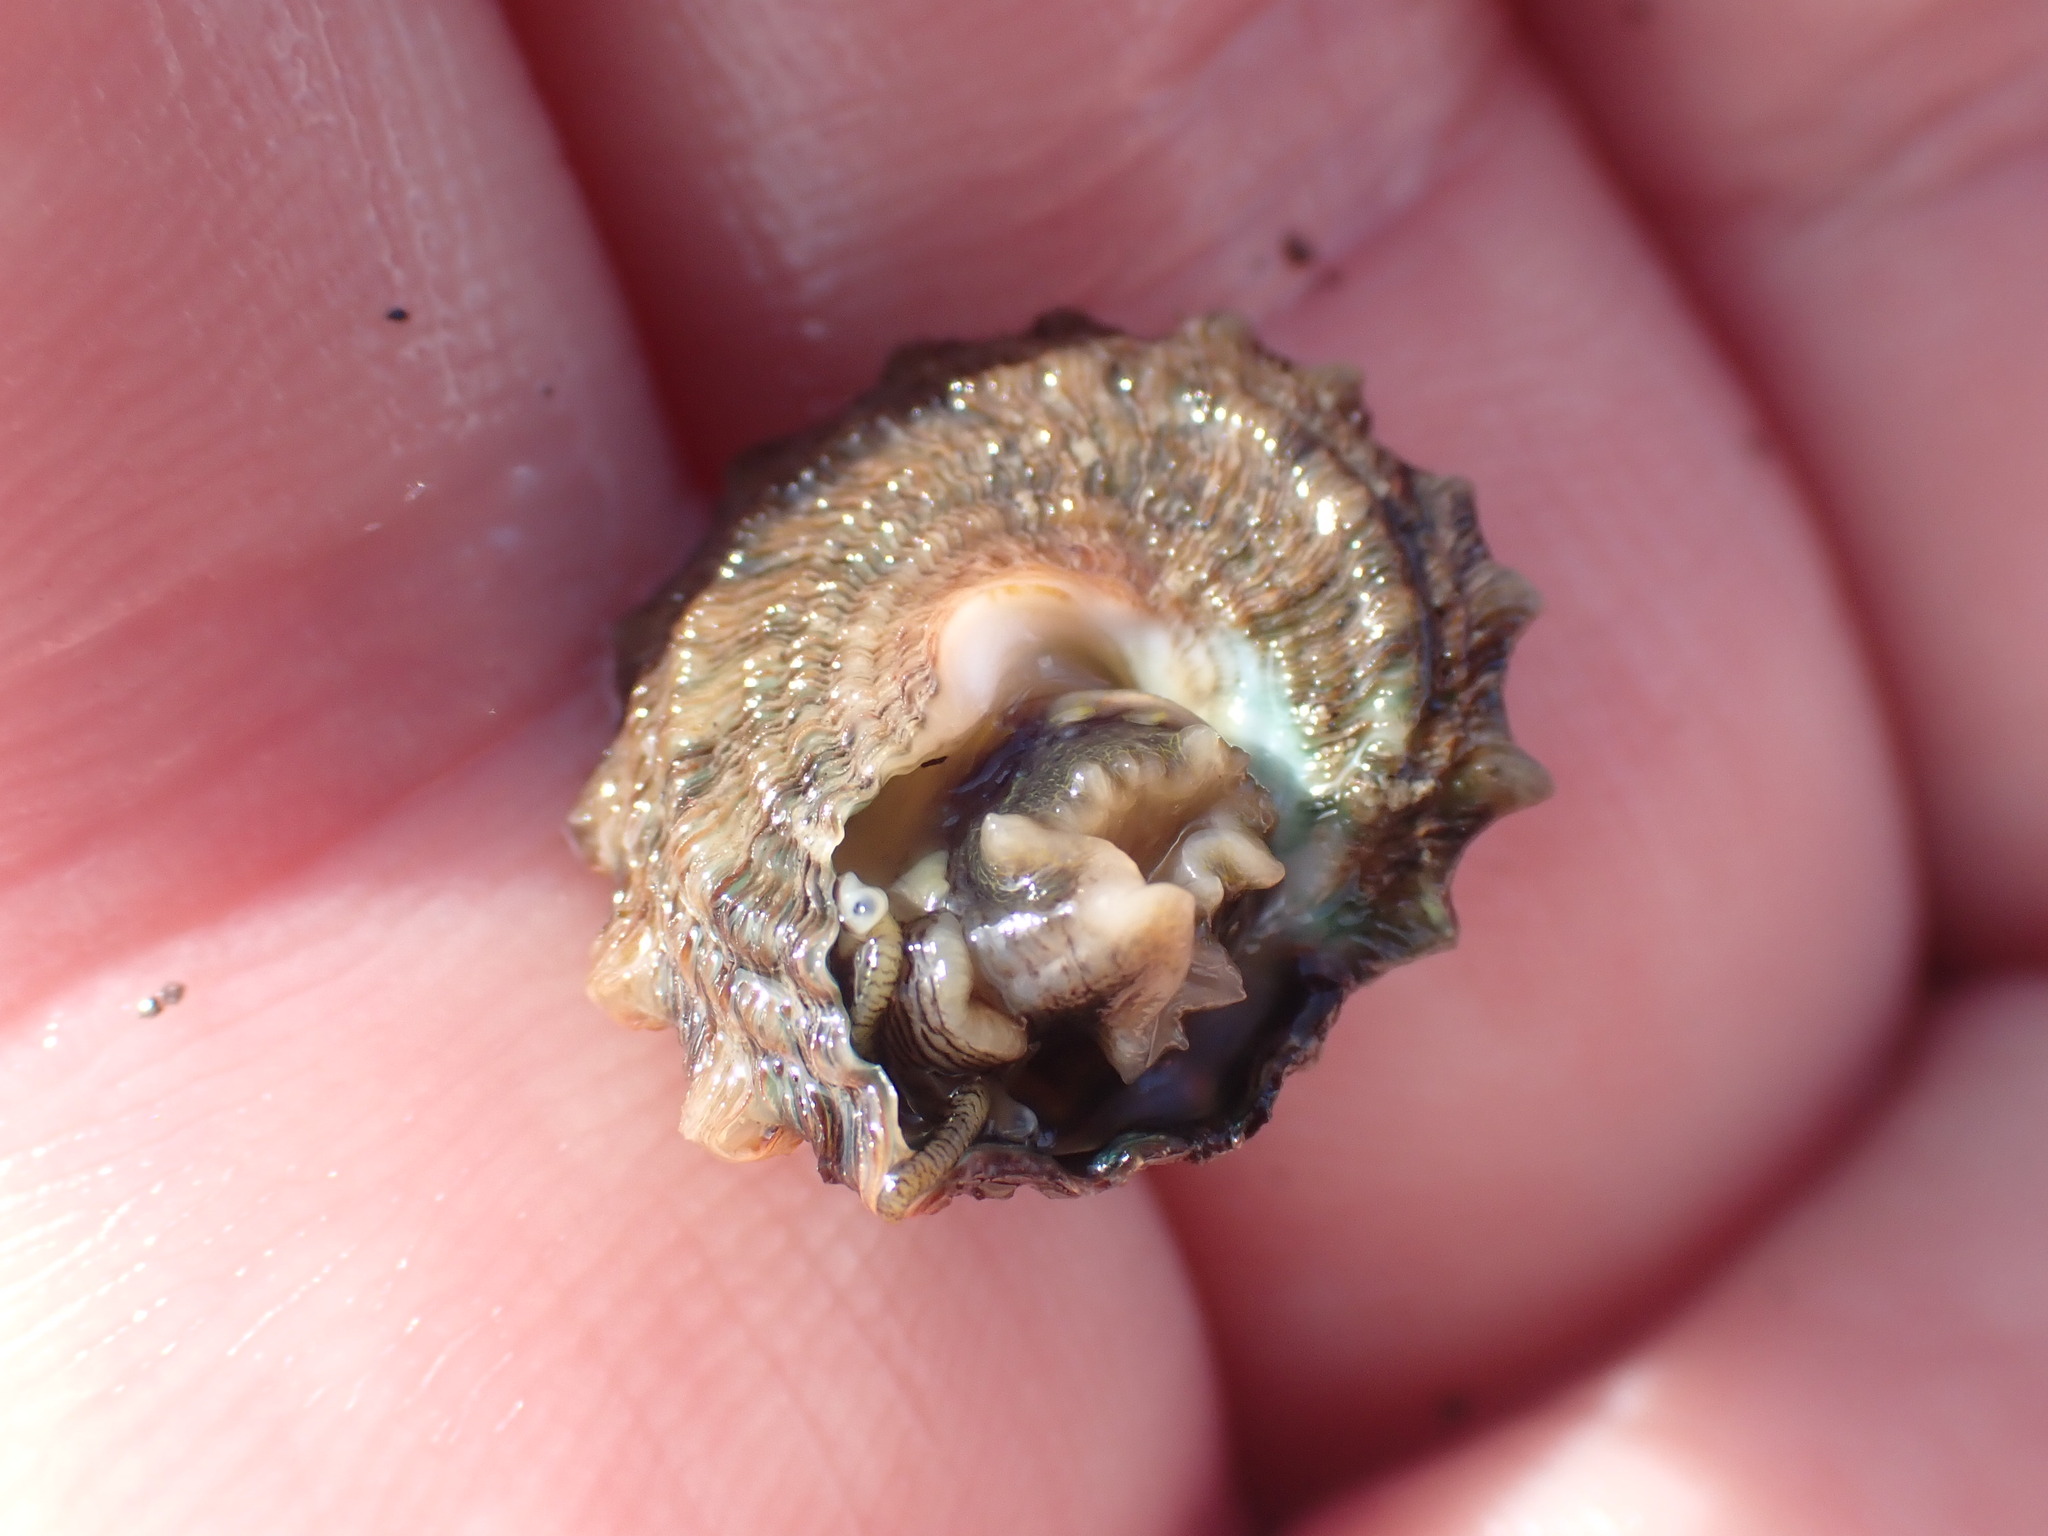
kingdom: Animalia
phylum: Mollusca
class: Gastropoda
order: Trochida
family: Turbinidae
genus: Cookia
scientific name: Cookia sulcata
